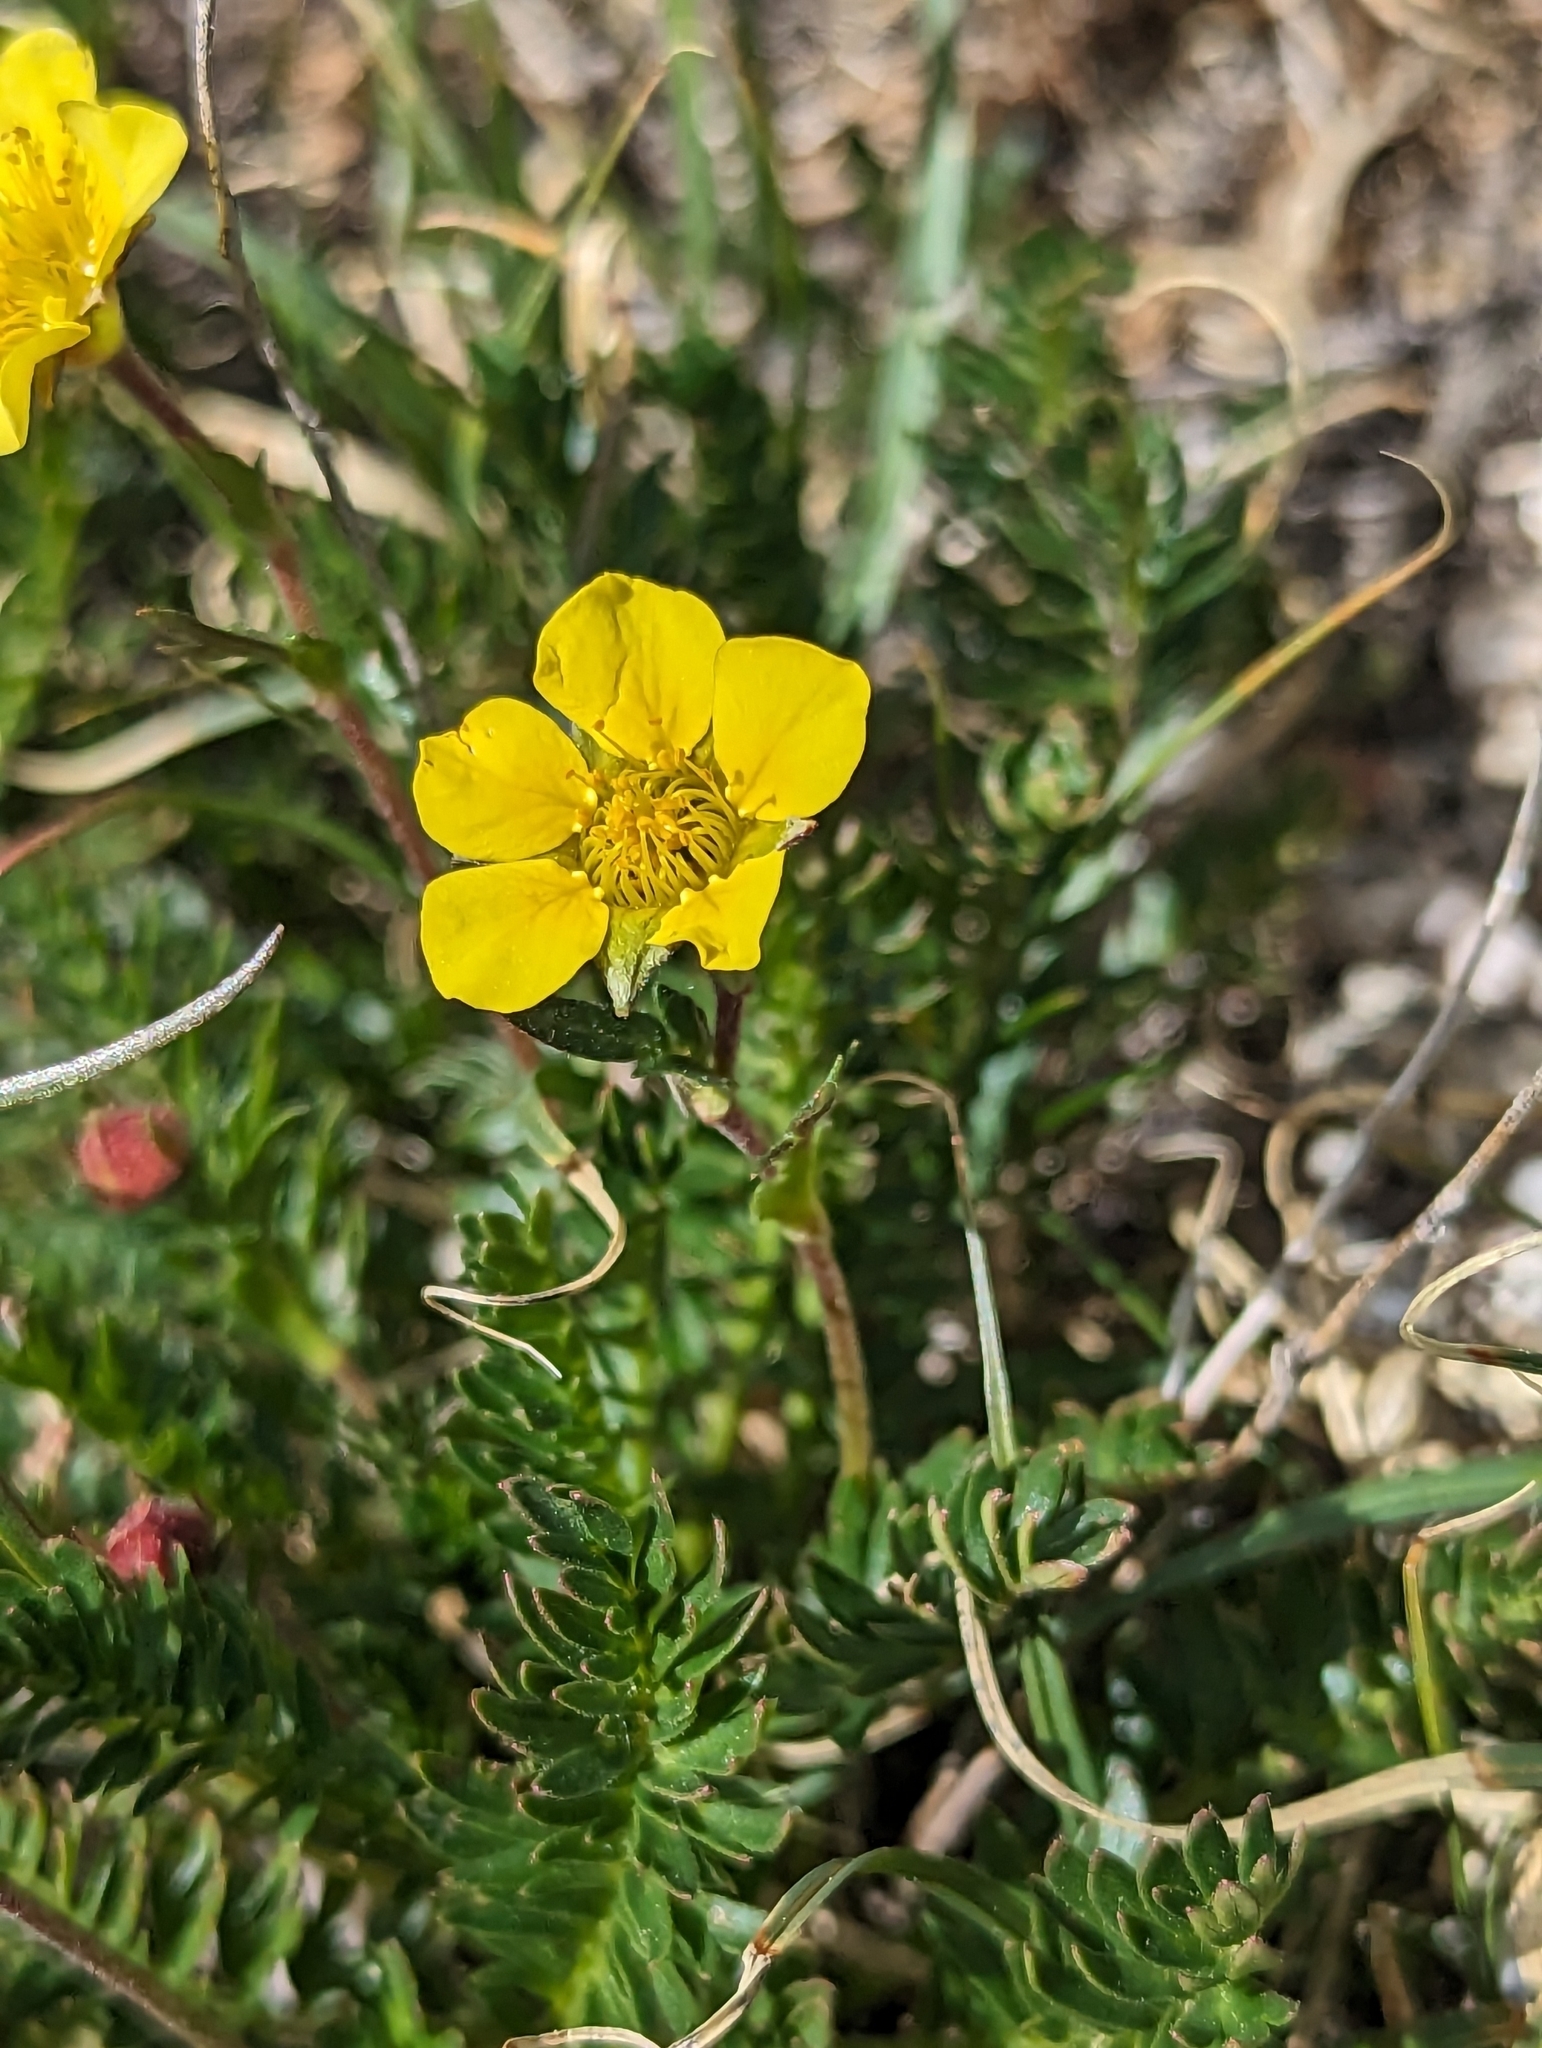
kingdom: Plantae
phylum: Tracheophyta
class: Magnoliopsida
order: Rosales
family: Rosaceae
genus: Geum
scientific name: Geum rossii
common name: Alpine avens
